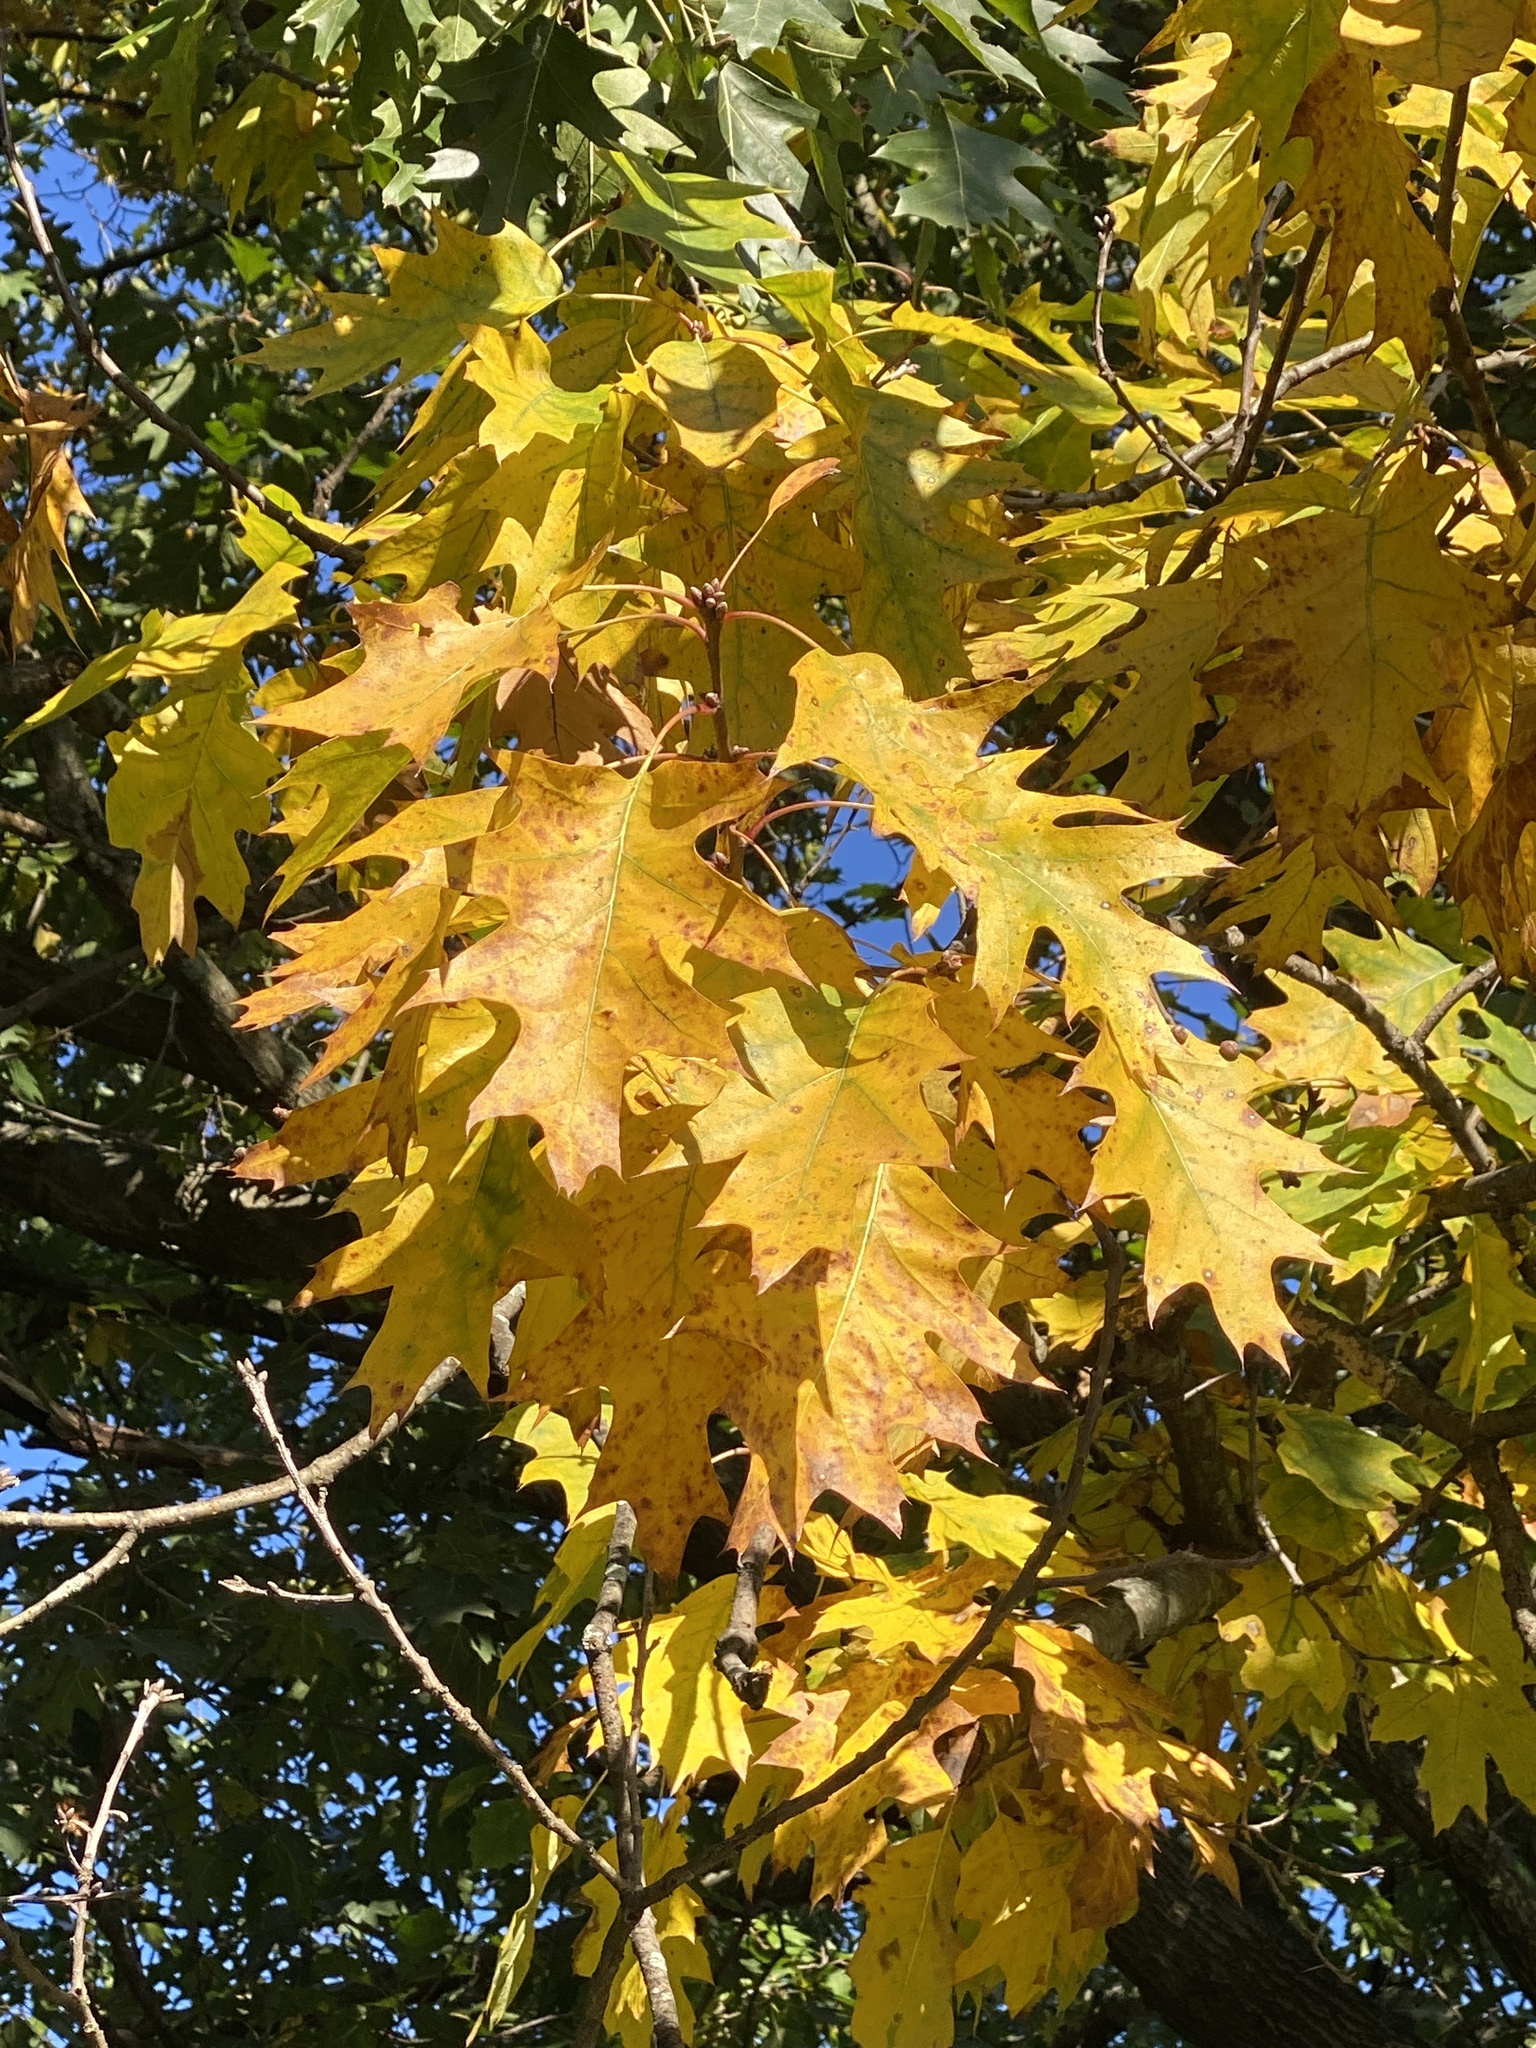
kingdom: Plantae
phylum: Tracheophyta
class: Magnoliopsida
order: Fagales
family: Fagaceae
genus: Quercus
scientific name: Quercus rubra
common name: Red oak
